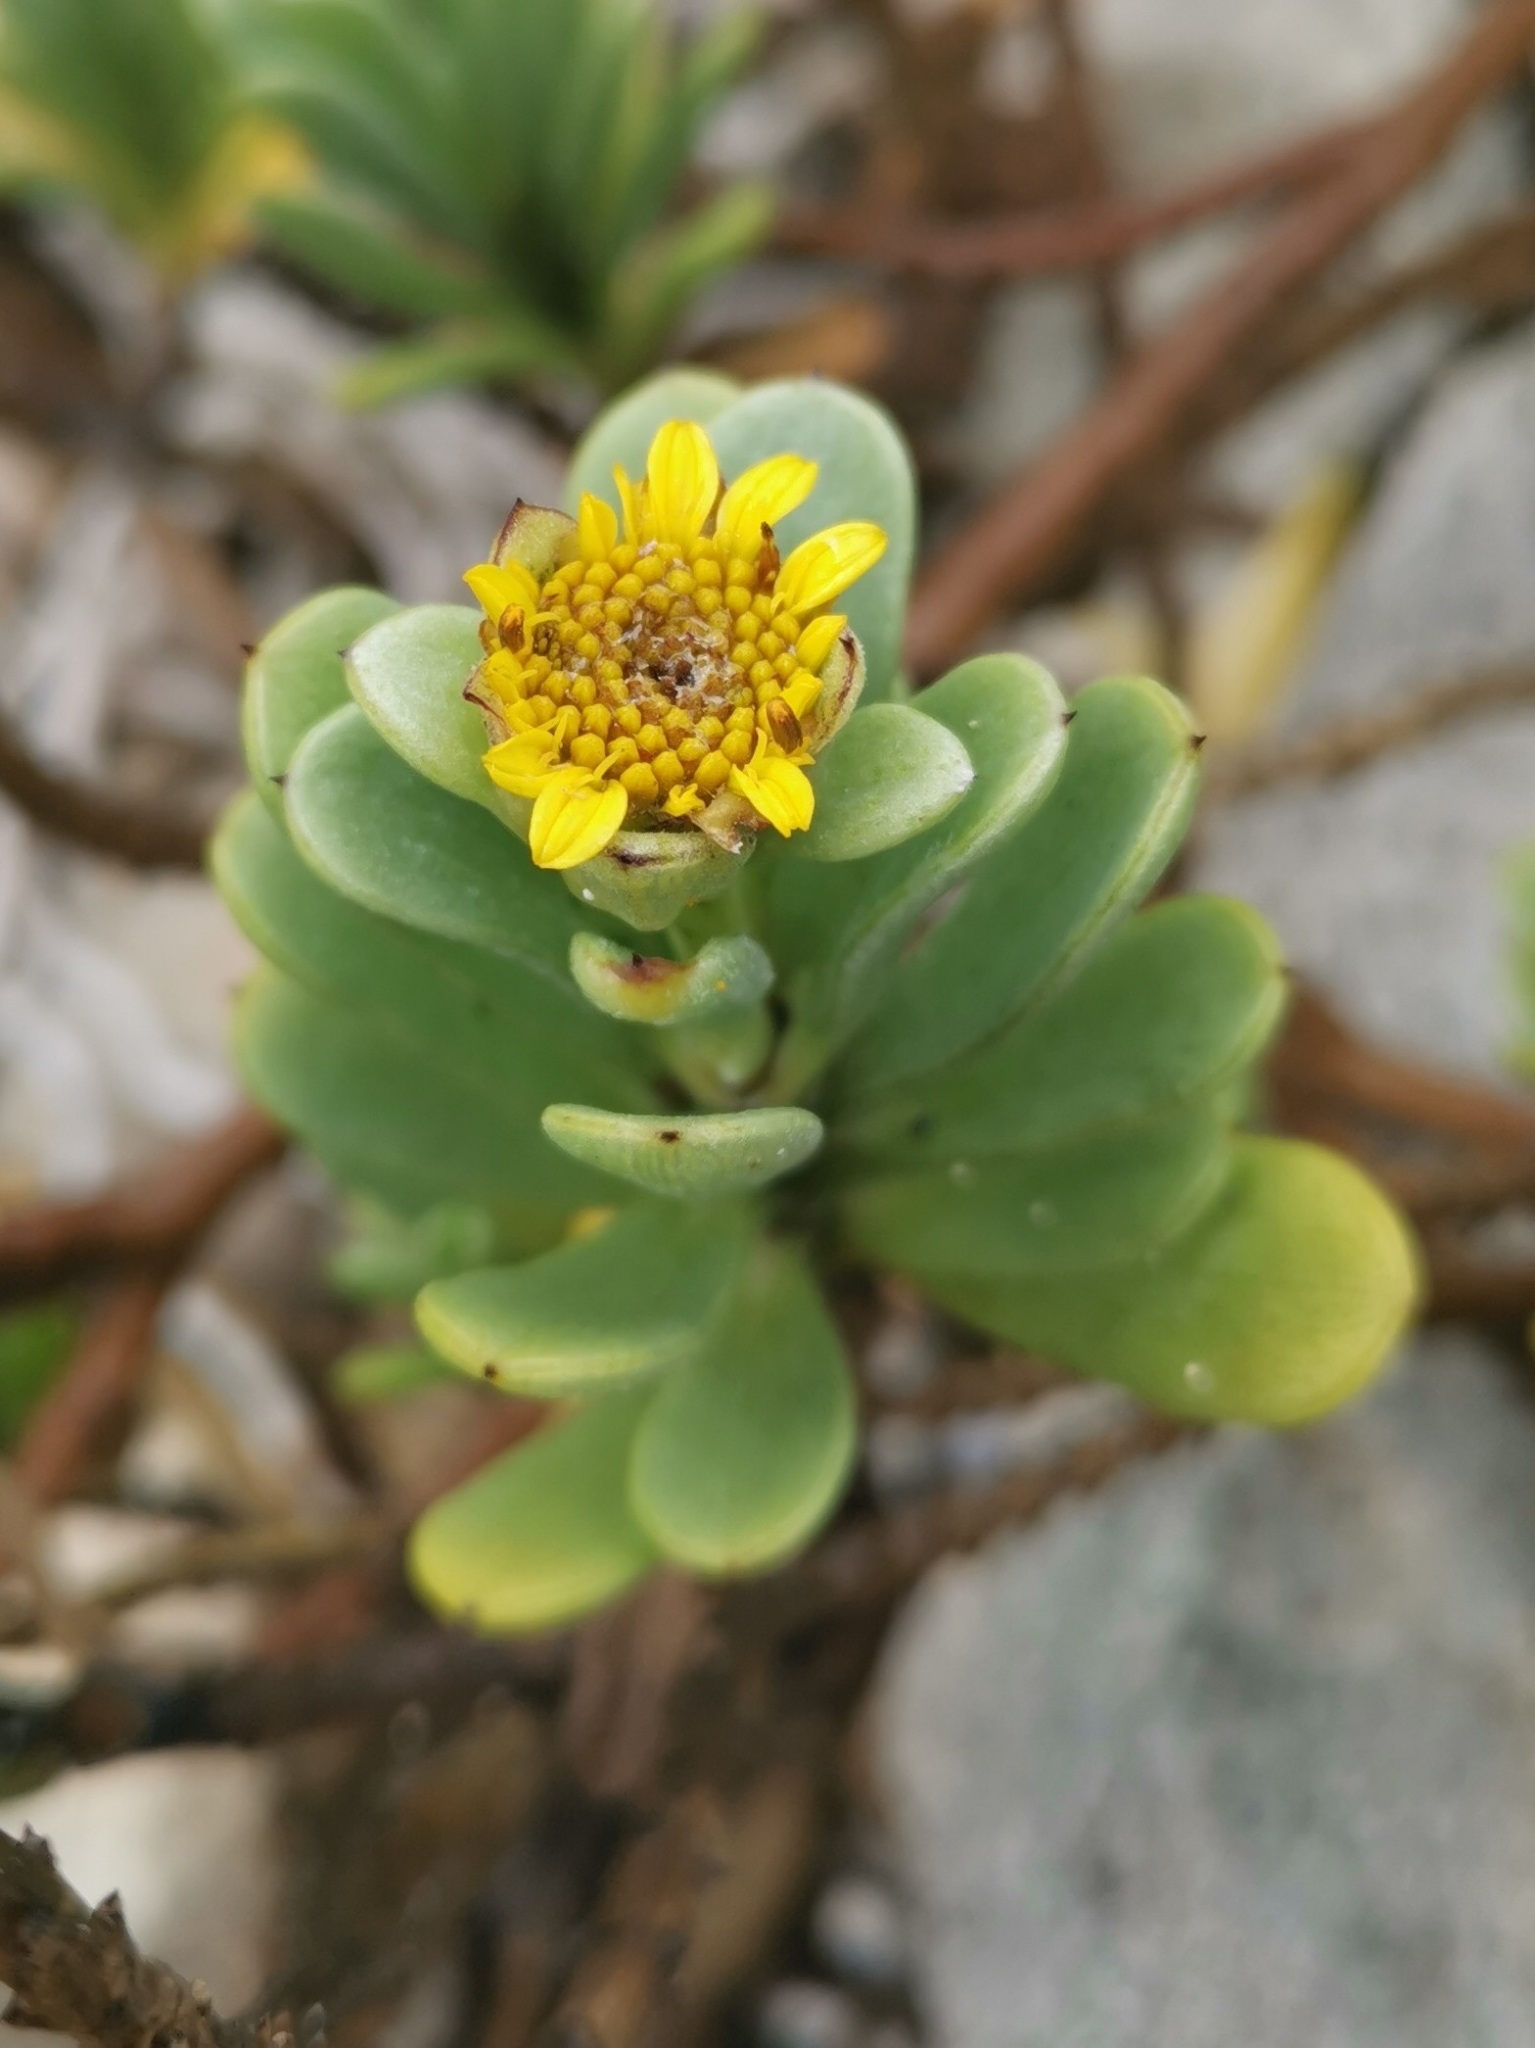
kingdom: Plantae
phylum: Tracheophyta
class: Magnoliopsida
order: Asterales
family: Asteraceae
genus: Borrichia
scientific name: Borrichia arborescens
